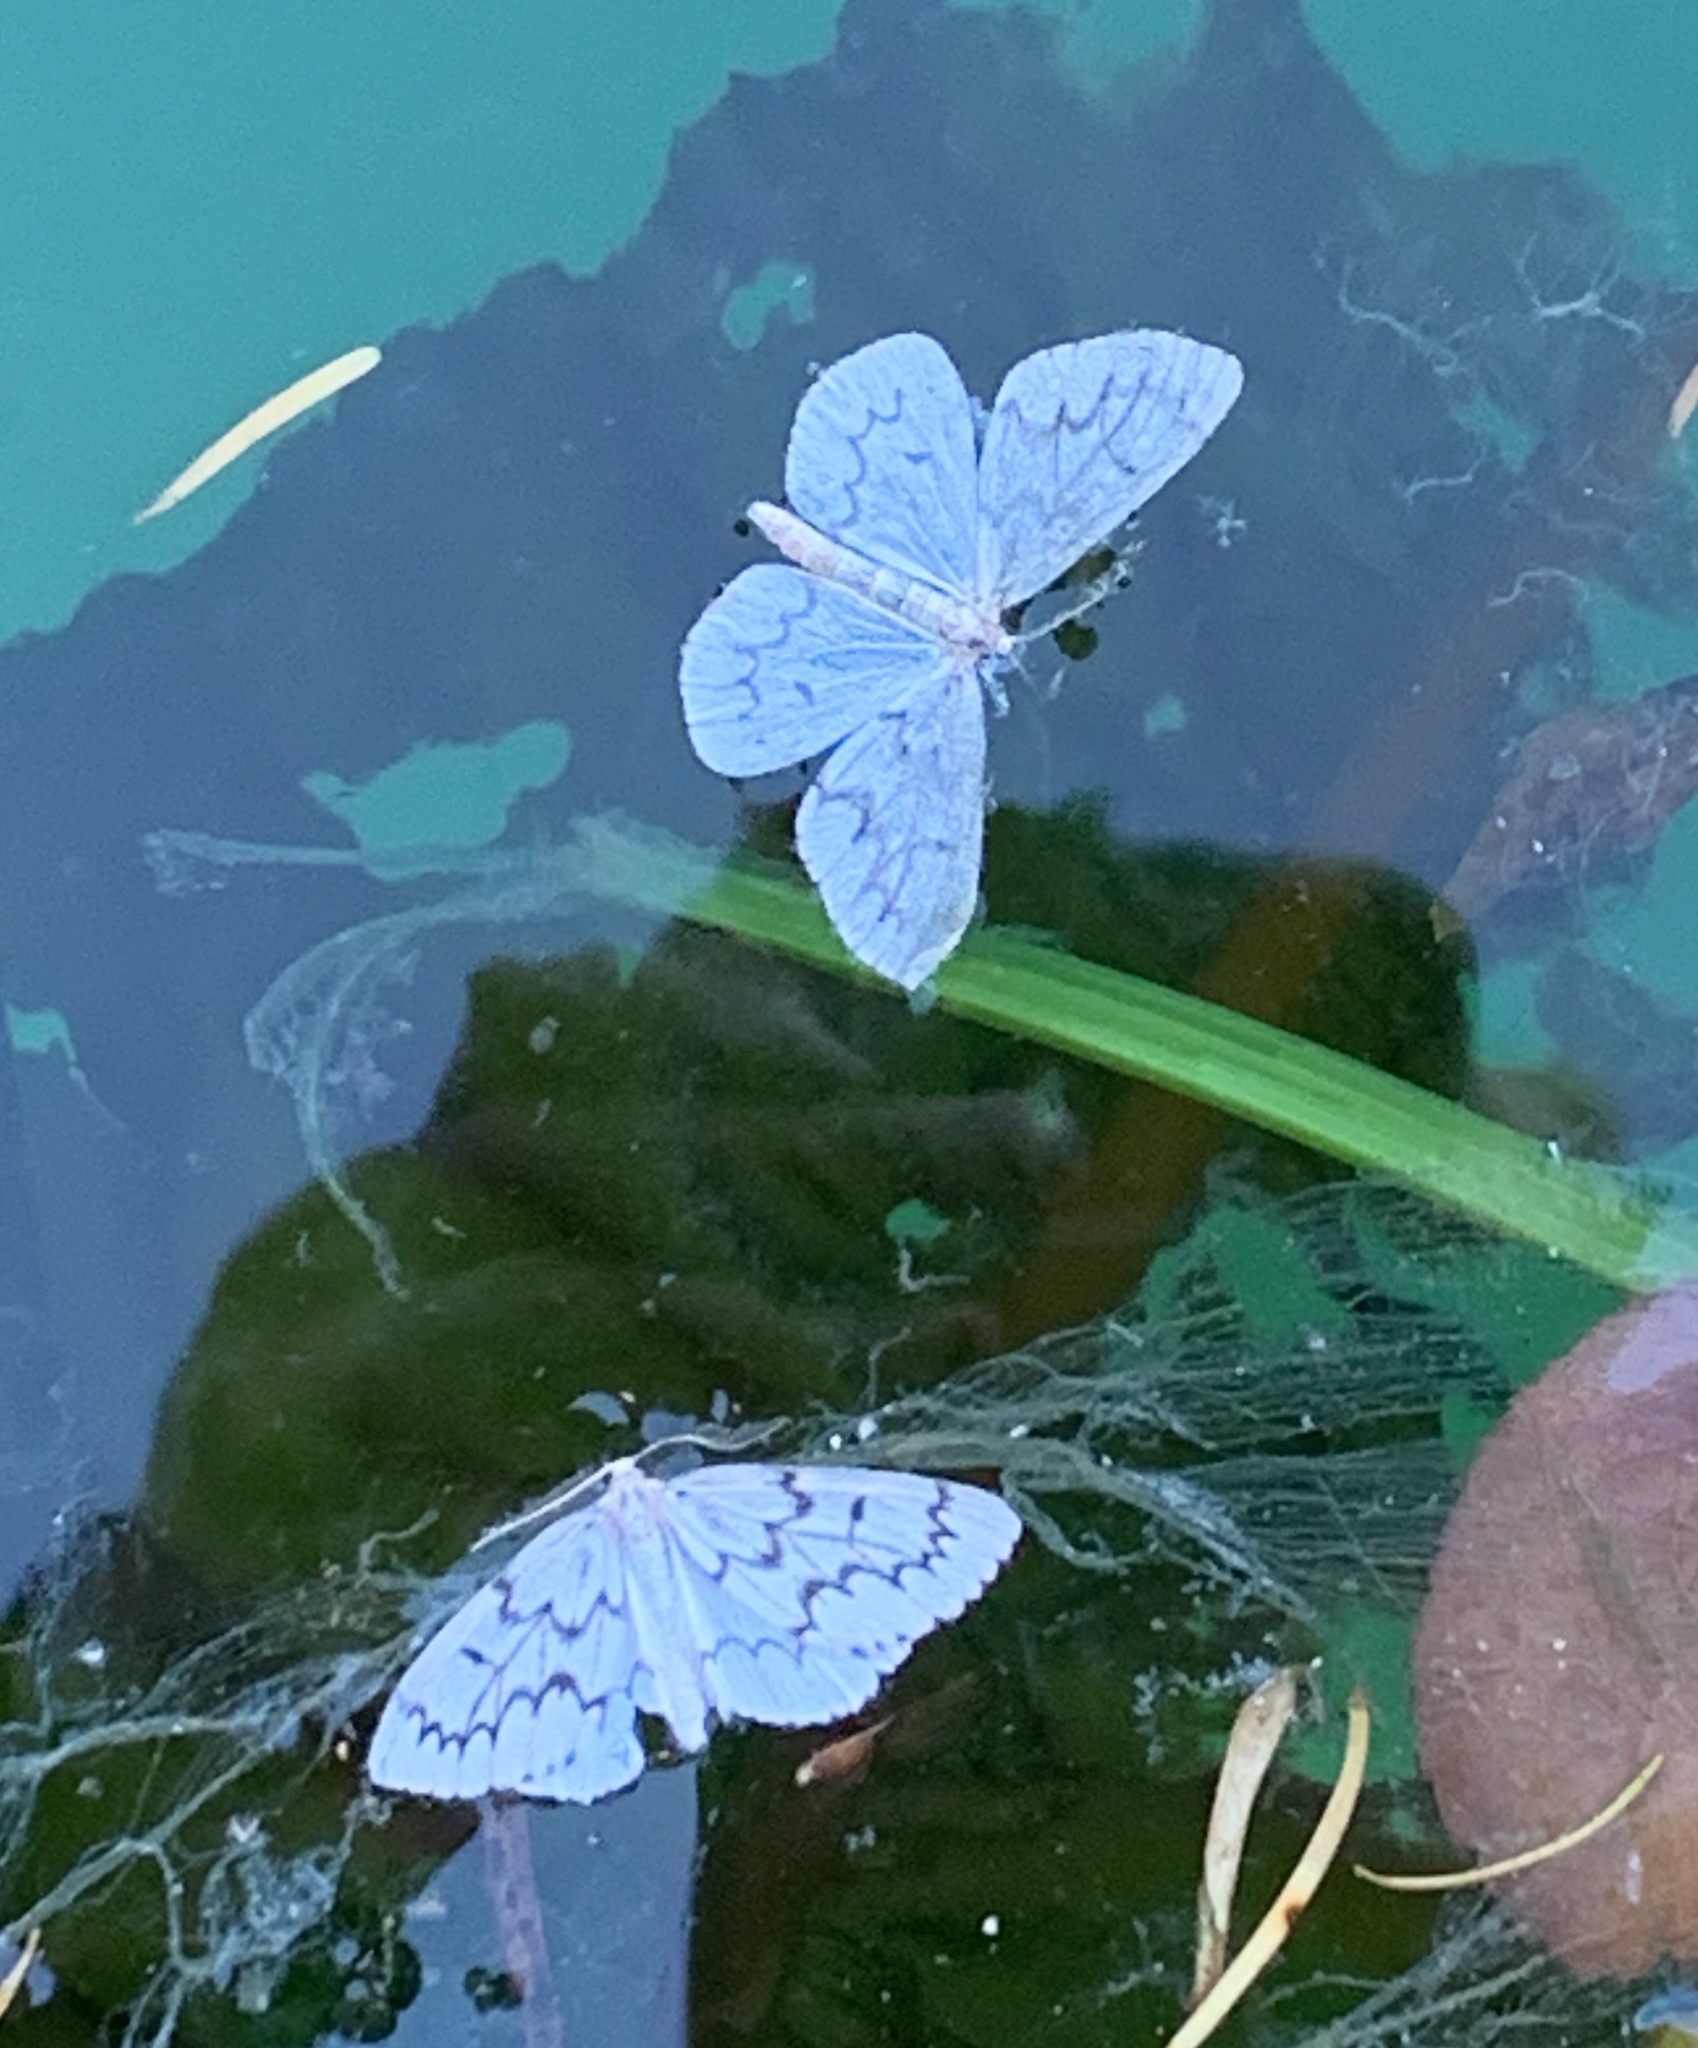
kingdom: Animalia
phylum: Arthropoda
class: Insecta
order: Lepidoptera
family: Geometridae
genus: Nepytia
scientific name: Nepytia phantasmaria
